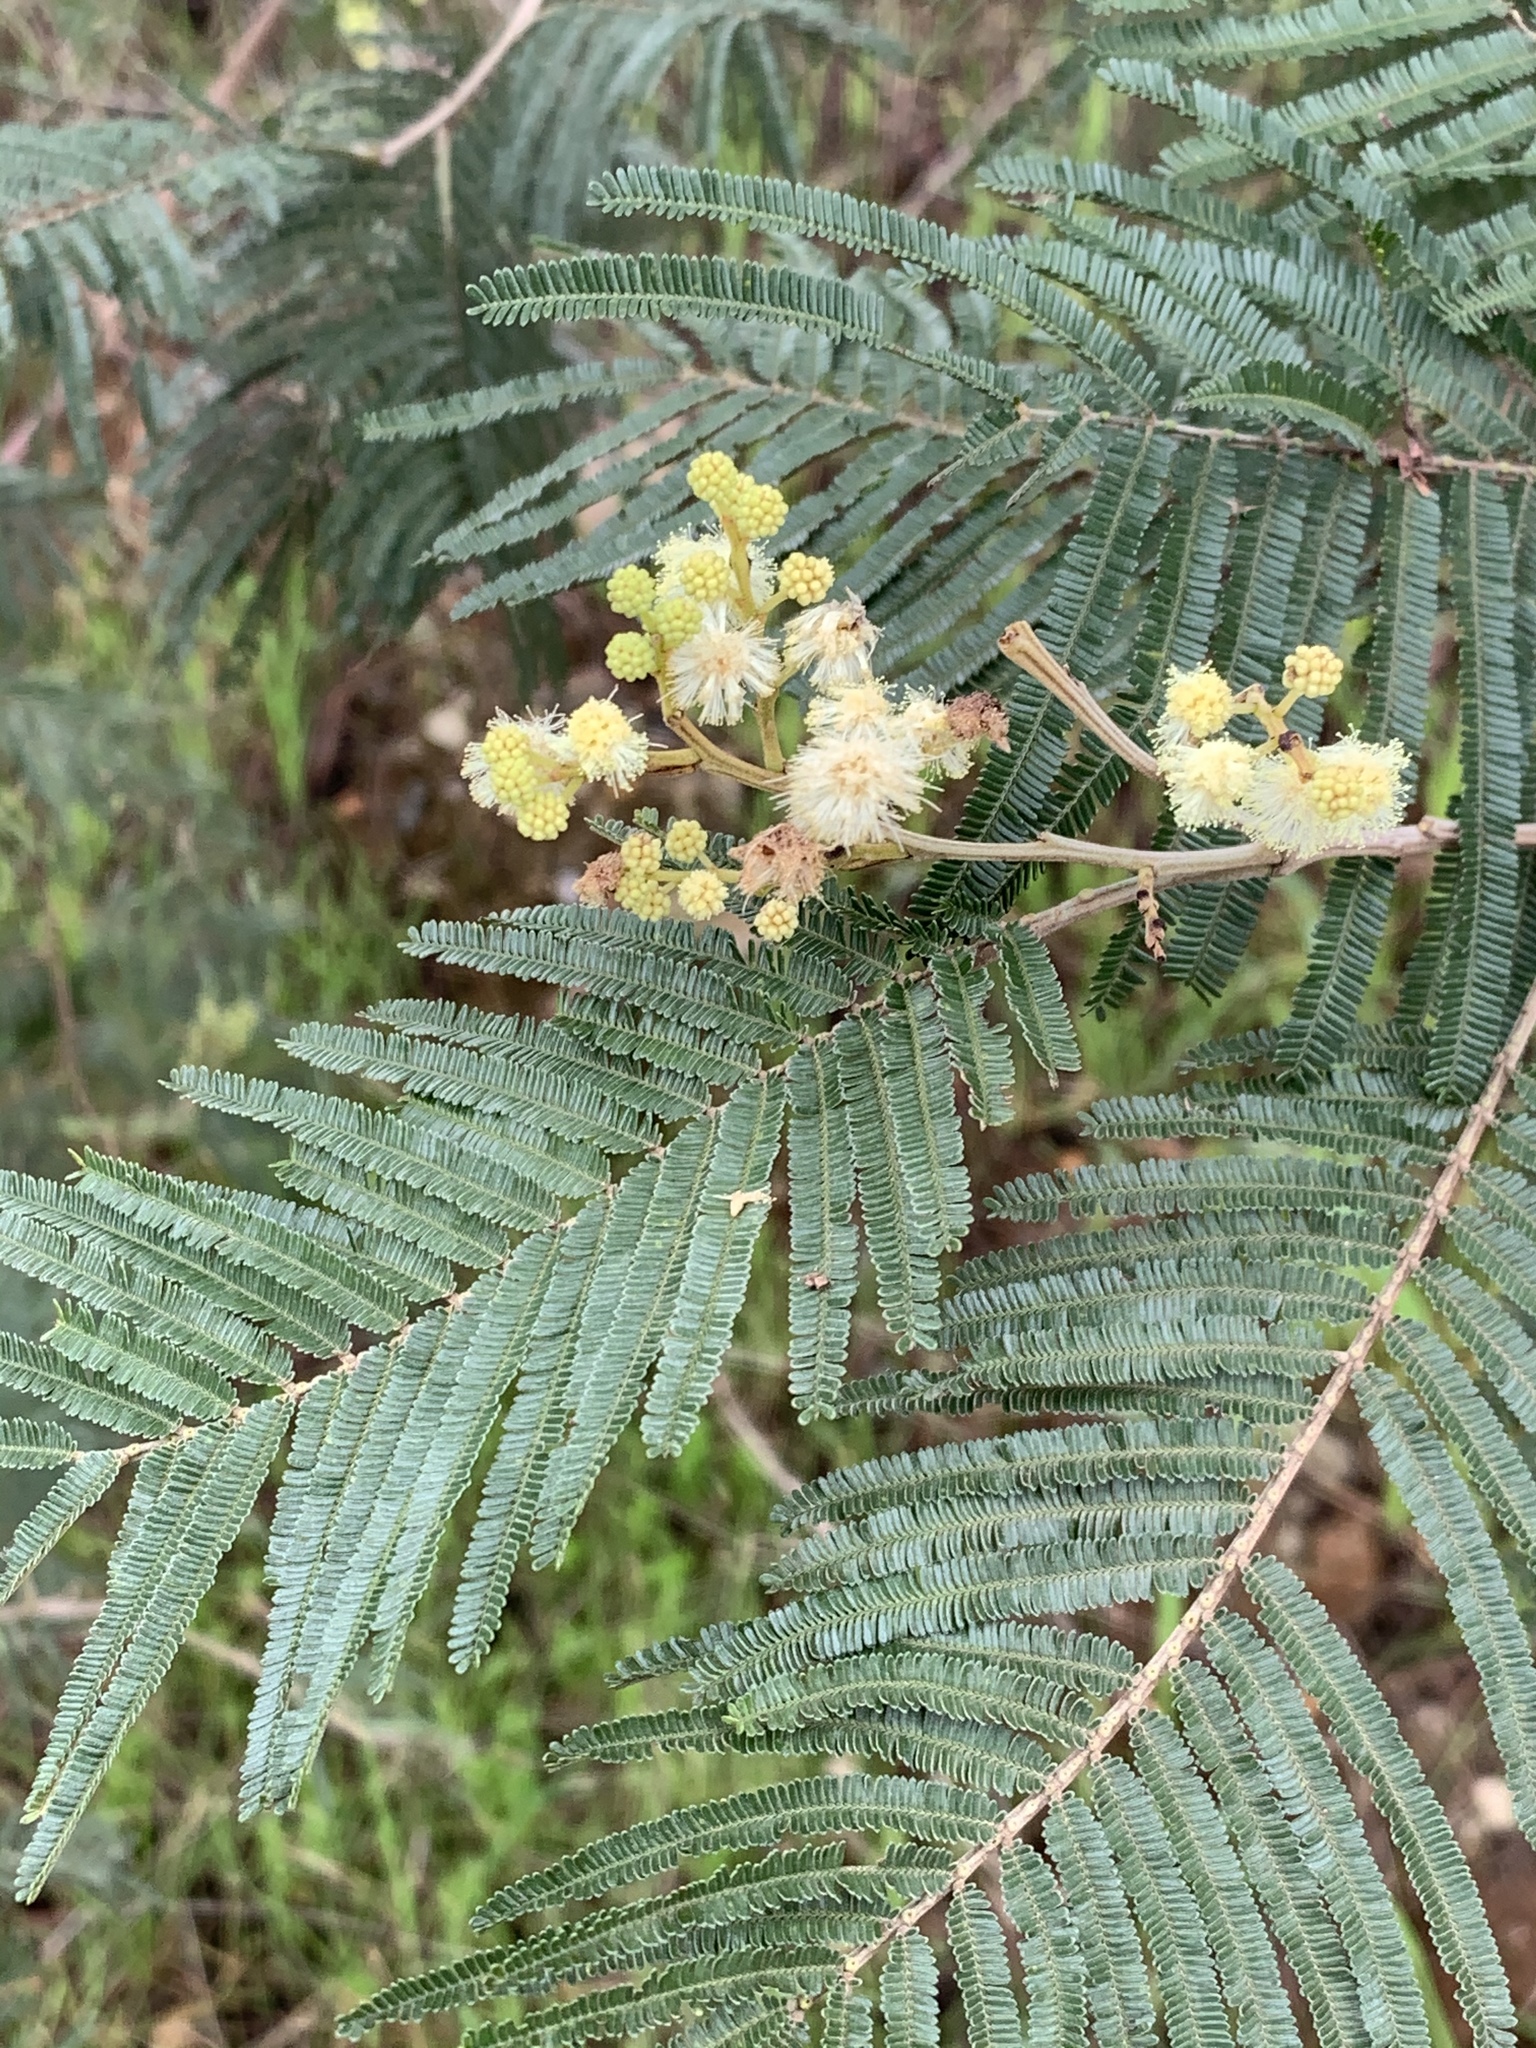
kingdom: Plantae
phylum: Tracheophyta
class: Magnoliopsida
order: Fabales
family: Fabaceae
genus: Acacia
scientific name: Acacia mearnsii
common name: Black wattle
